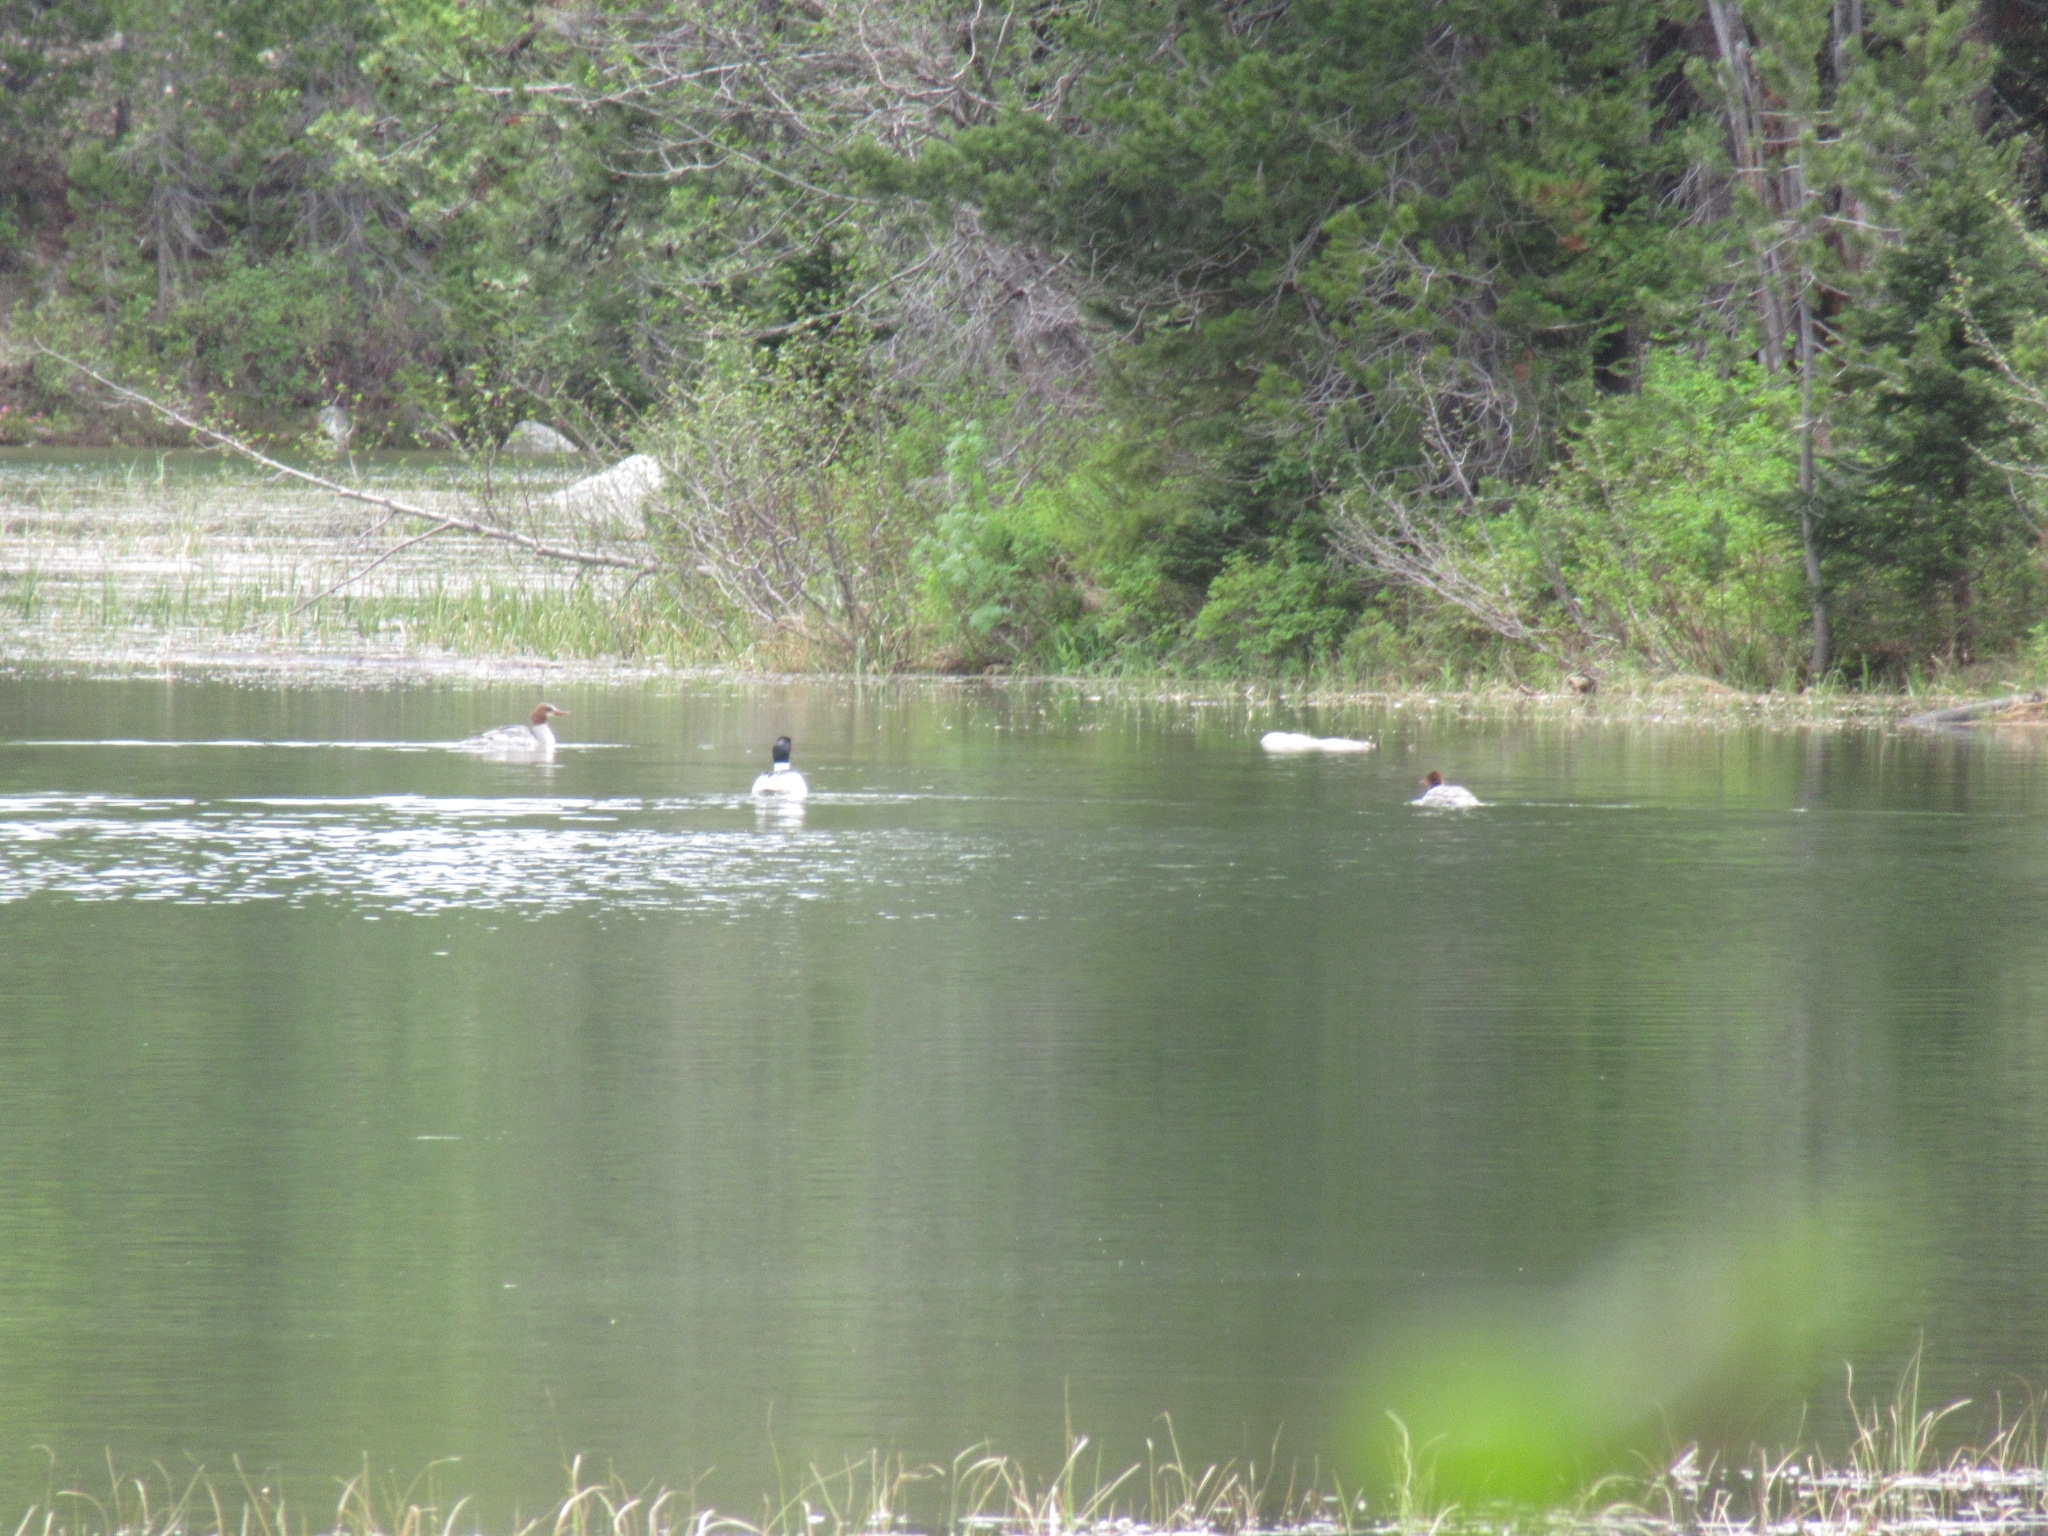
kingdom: Animalia
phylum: Chordata
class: Aves
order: Anseriformes
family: Anatidae
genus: Mergus
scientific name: Mergus merganser
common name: Common merganser
